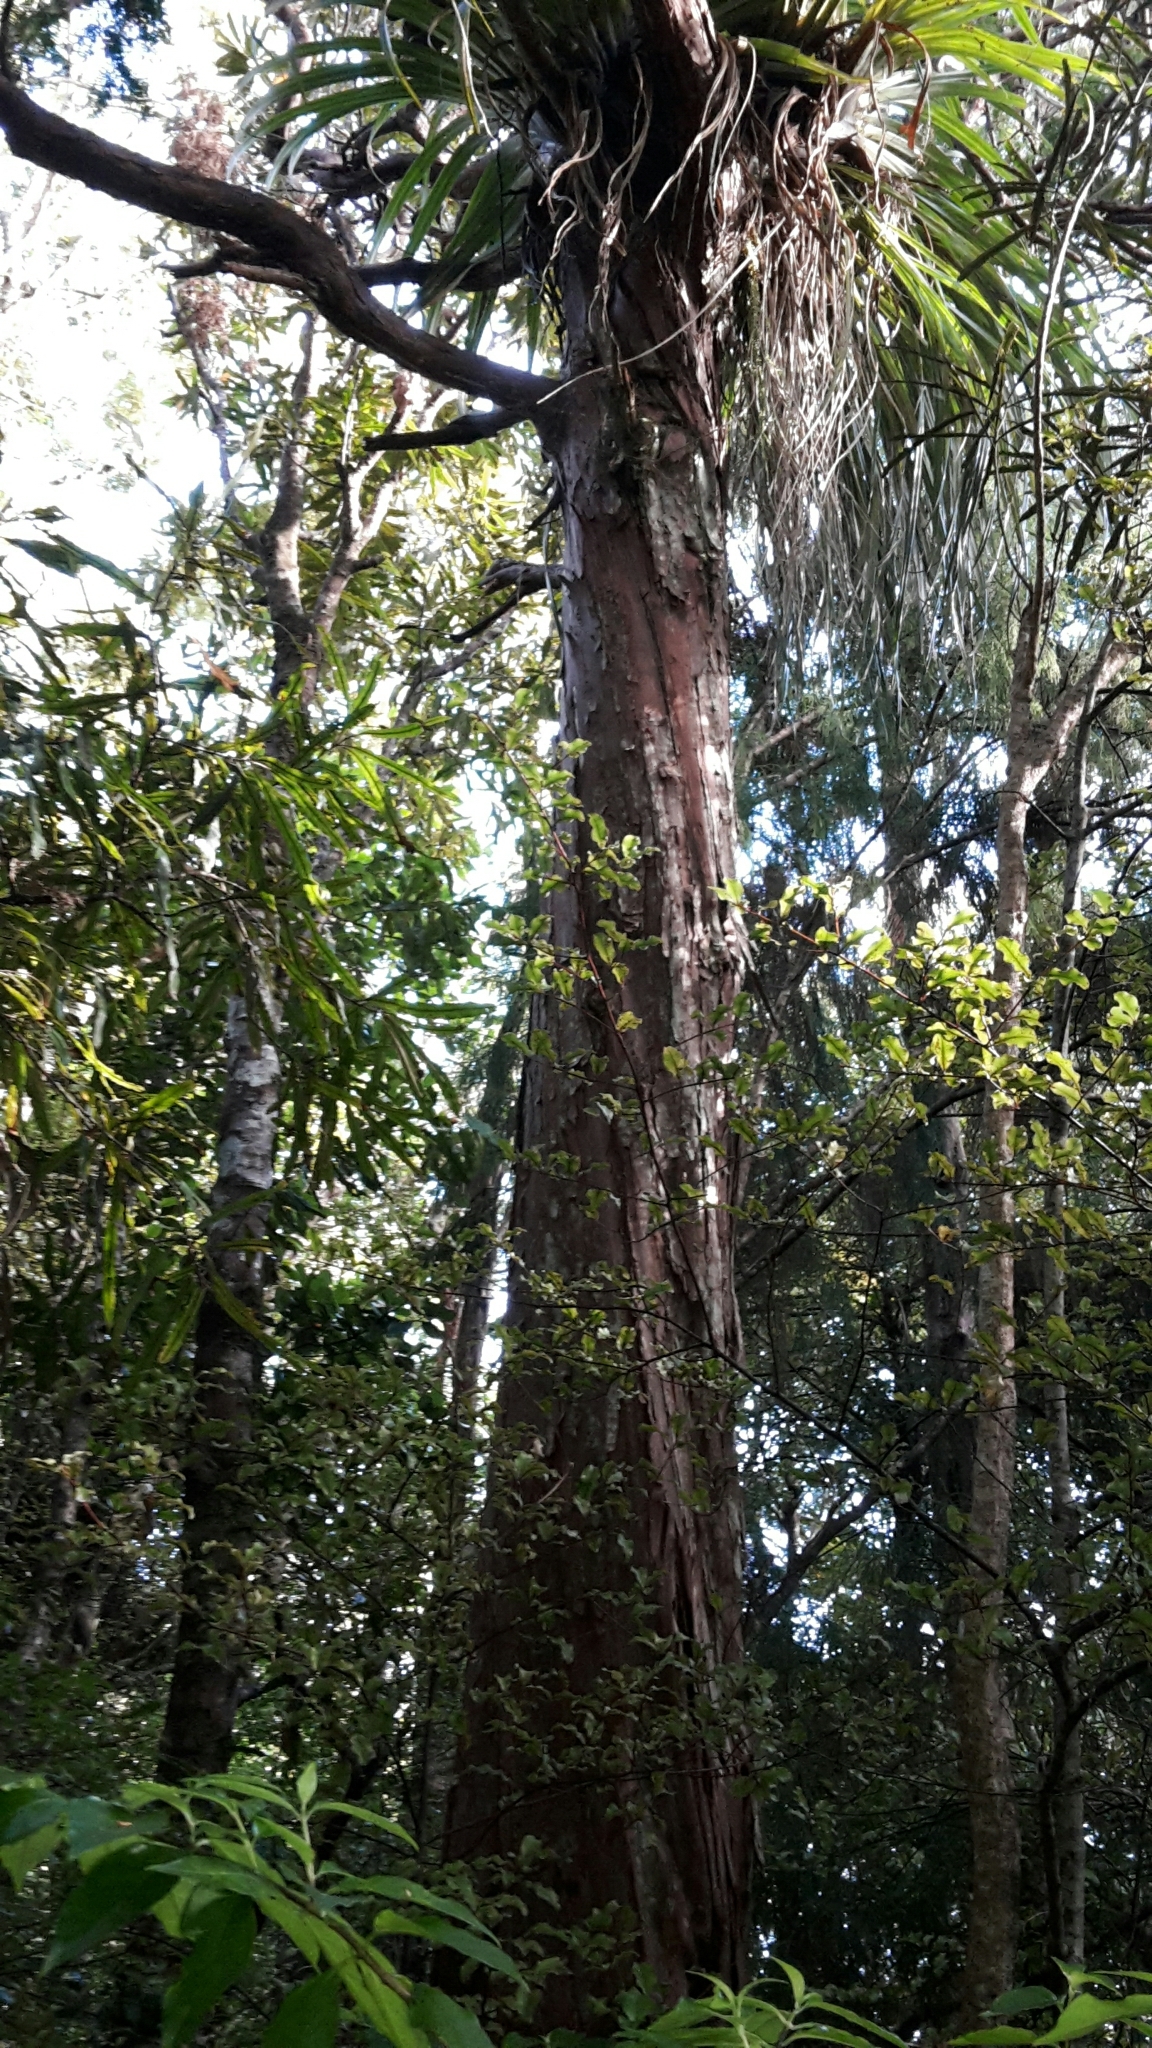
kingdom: Plantae
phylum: Tracheophyta
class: Pinopsida
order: Pinales
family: Cupressaceae
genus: Libocedrus
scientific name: Libocedrus plumosa
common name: New zealand cedar
